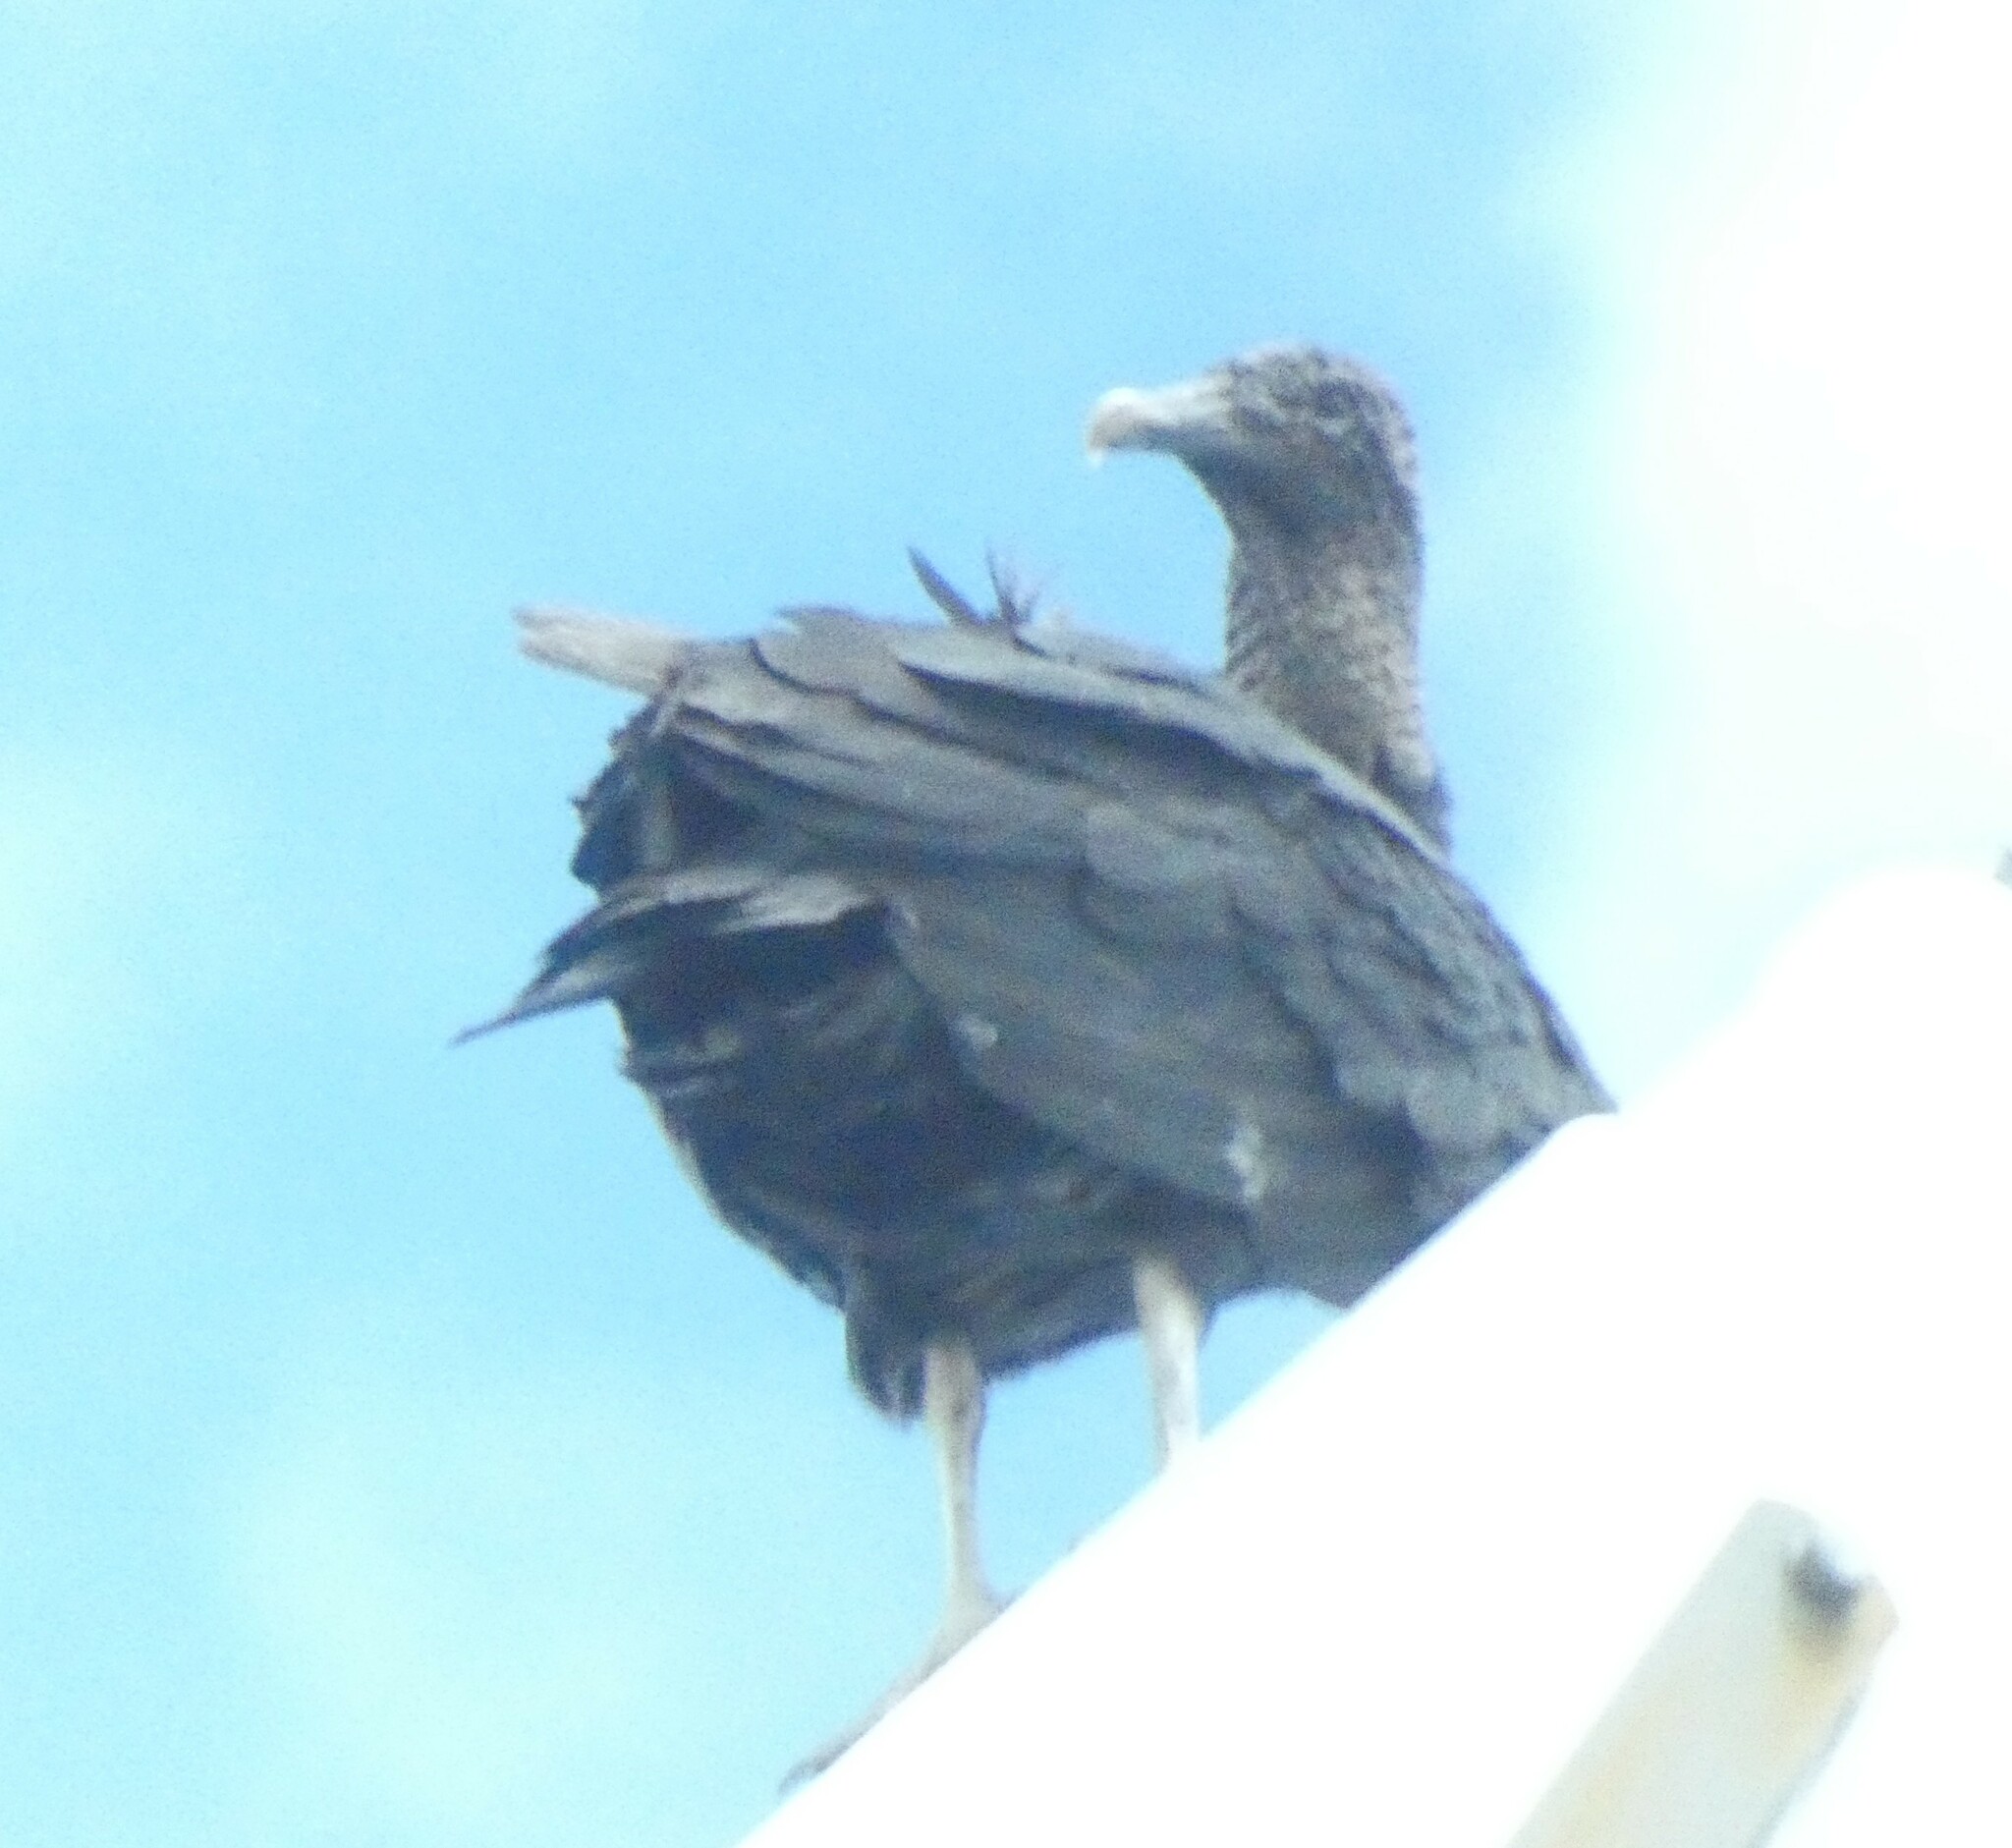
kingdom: Animalia
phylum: Chordata
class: Aves
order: Accipitriformes
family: Cathartidae
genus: Coragyps
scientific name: Coragyps atratus
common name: Black vulture
